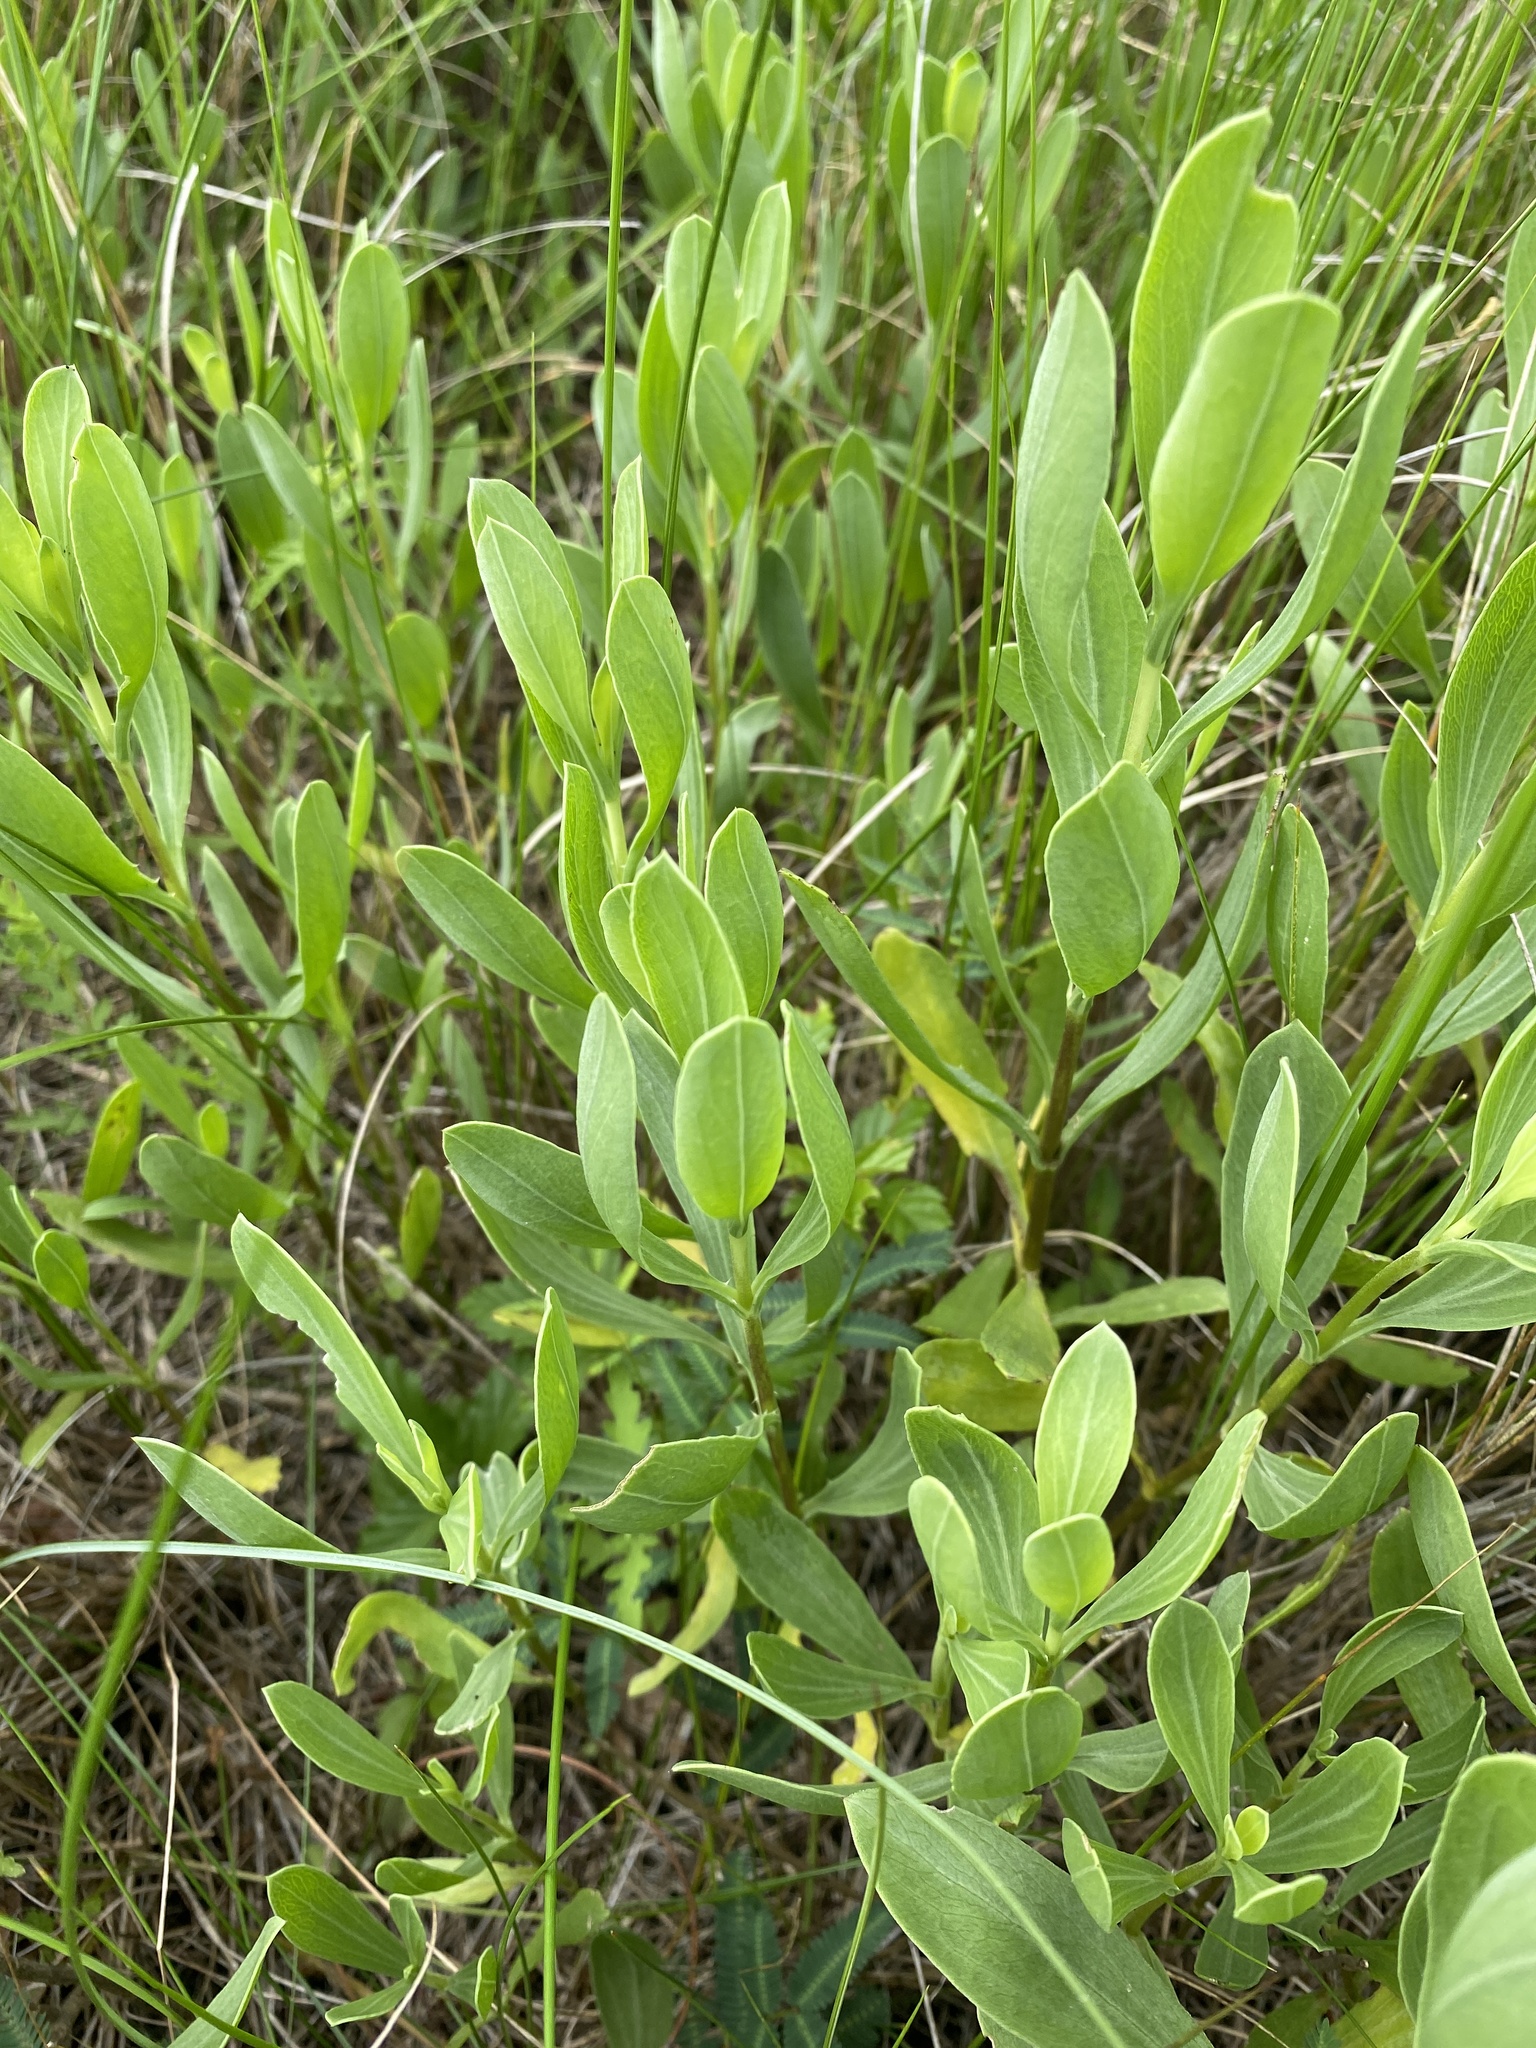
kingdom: Plantae
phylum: Tracheophyta
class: Magnoliopsida
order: Asterales
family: Asteraceae
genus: Borrichia
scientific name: Borrichia frutescens
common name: Sea oxeye
